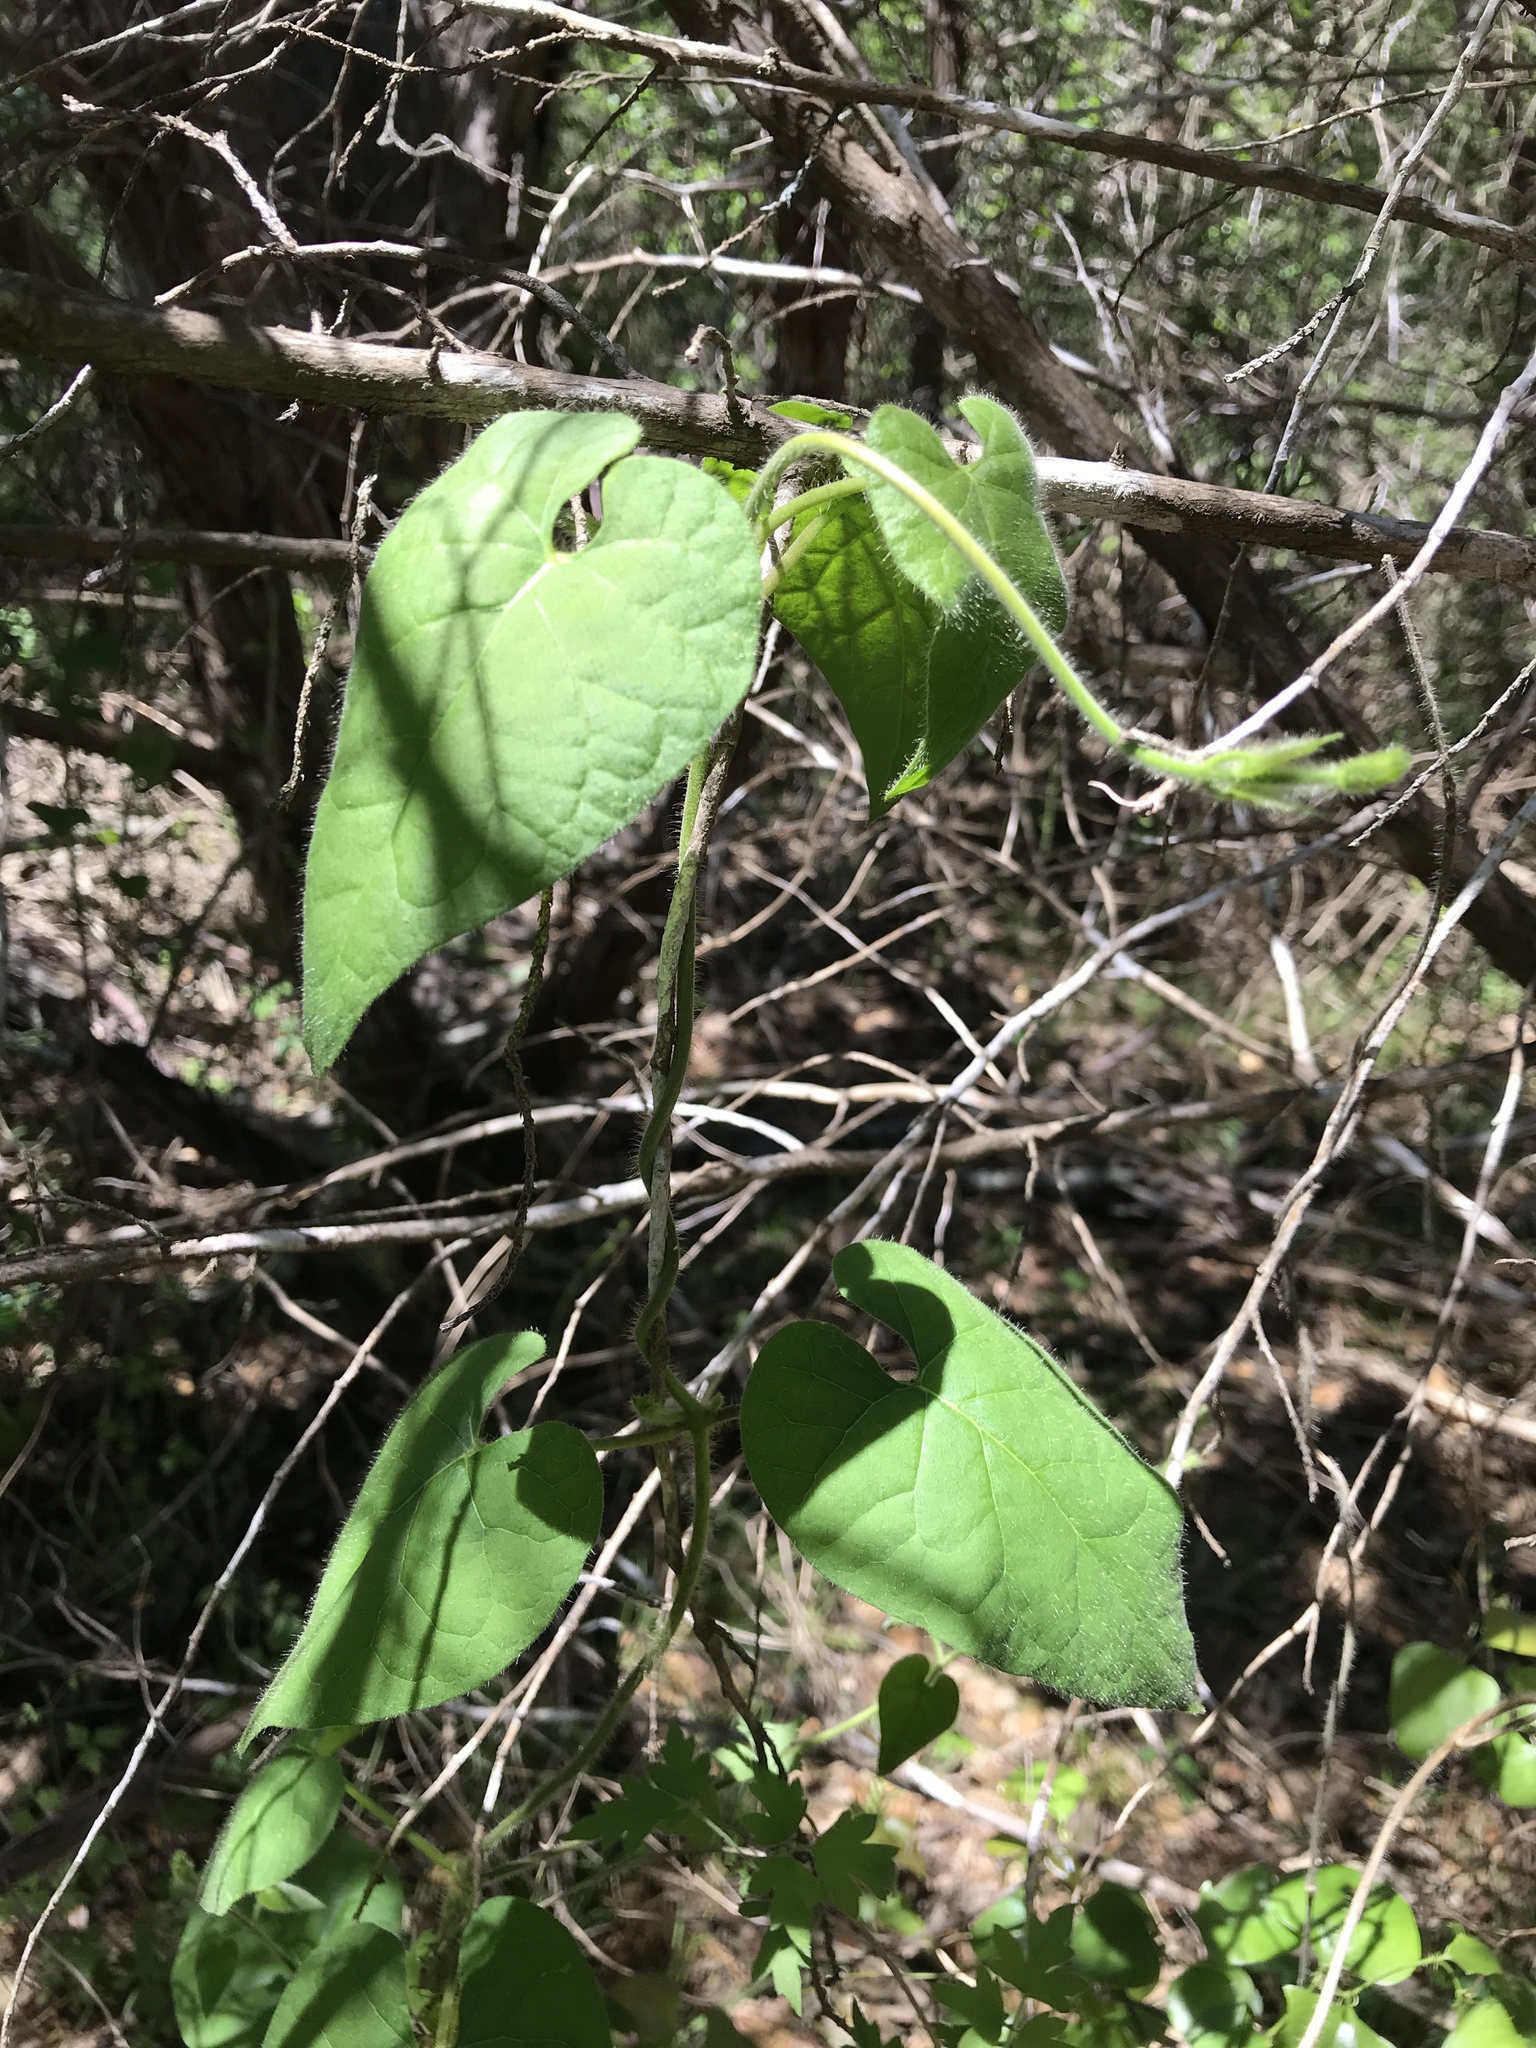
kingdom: Plantae
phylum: Tracheophyta
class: Magnoliopsida
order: Gentianales
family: Apocynaceae
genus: Dictyanthus
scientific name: Dictyanthus reticulatus
